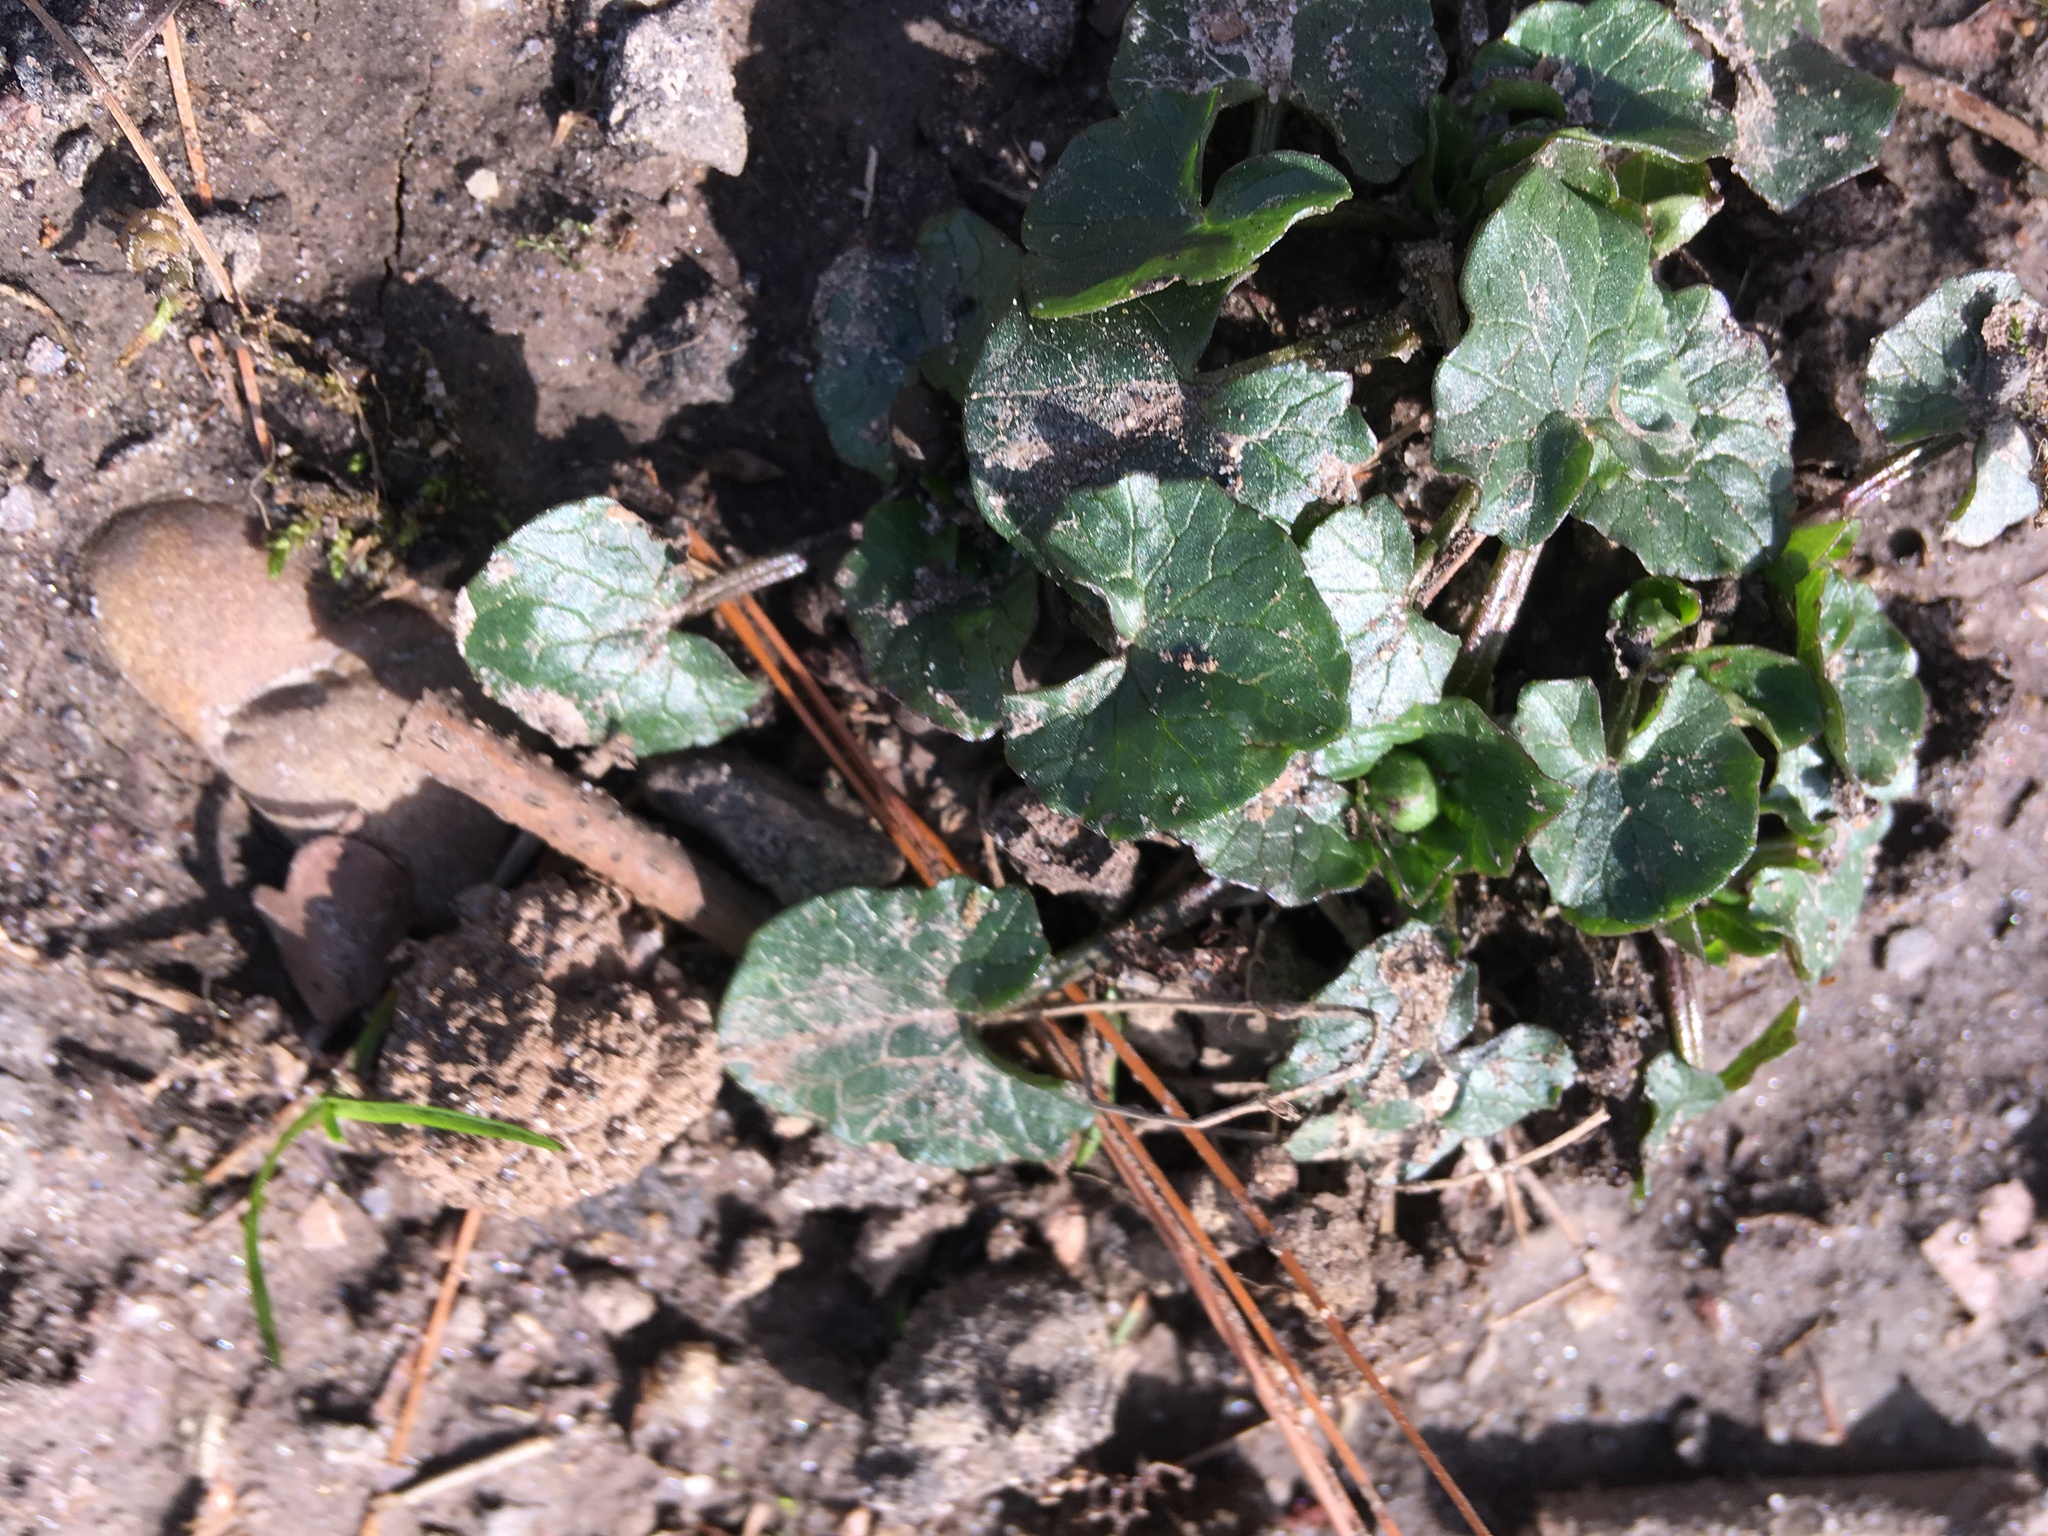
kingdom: Plantae
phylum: Tracheophyta
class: Magnoliopsida
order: Ranunculales
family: Ranunculaceae
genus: Ficaria
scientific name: Ficaria verna
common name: Lesser celandine
